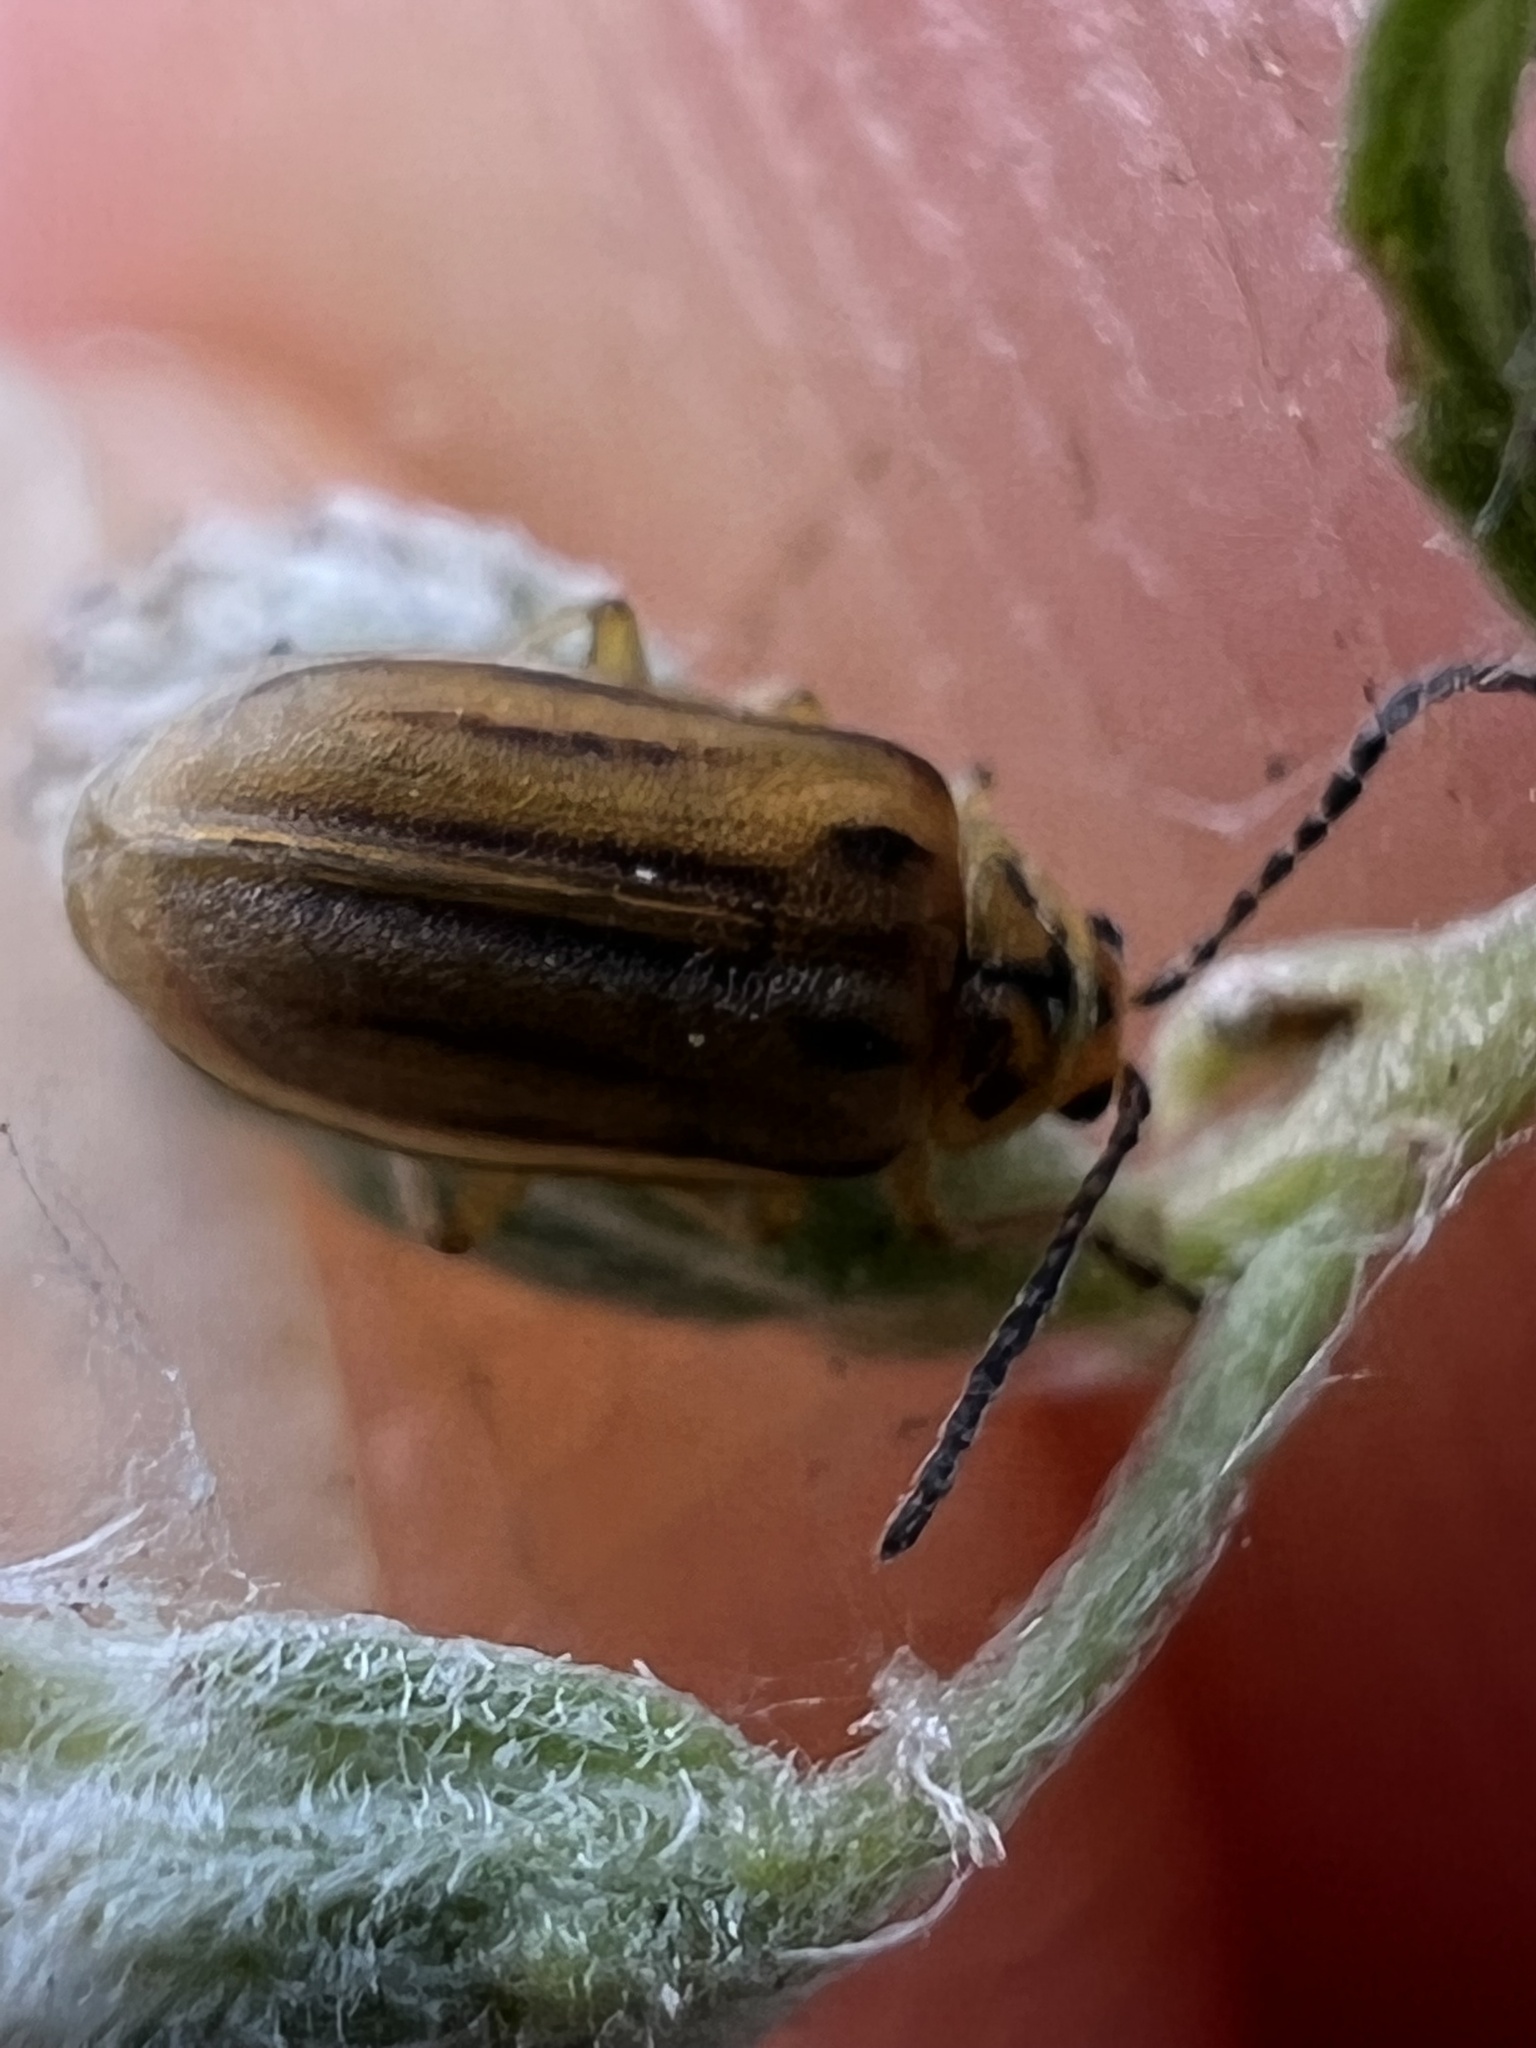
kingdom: Animalia
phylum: Arthropoda
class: Insecta
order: Coleoptera
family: Chrysomelidae
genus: Ophraella
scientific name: Ophraella notata
